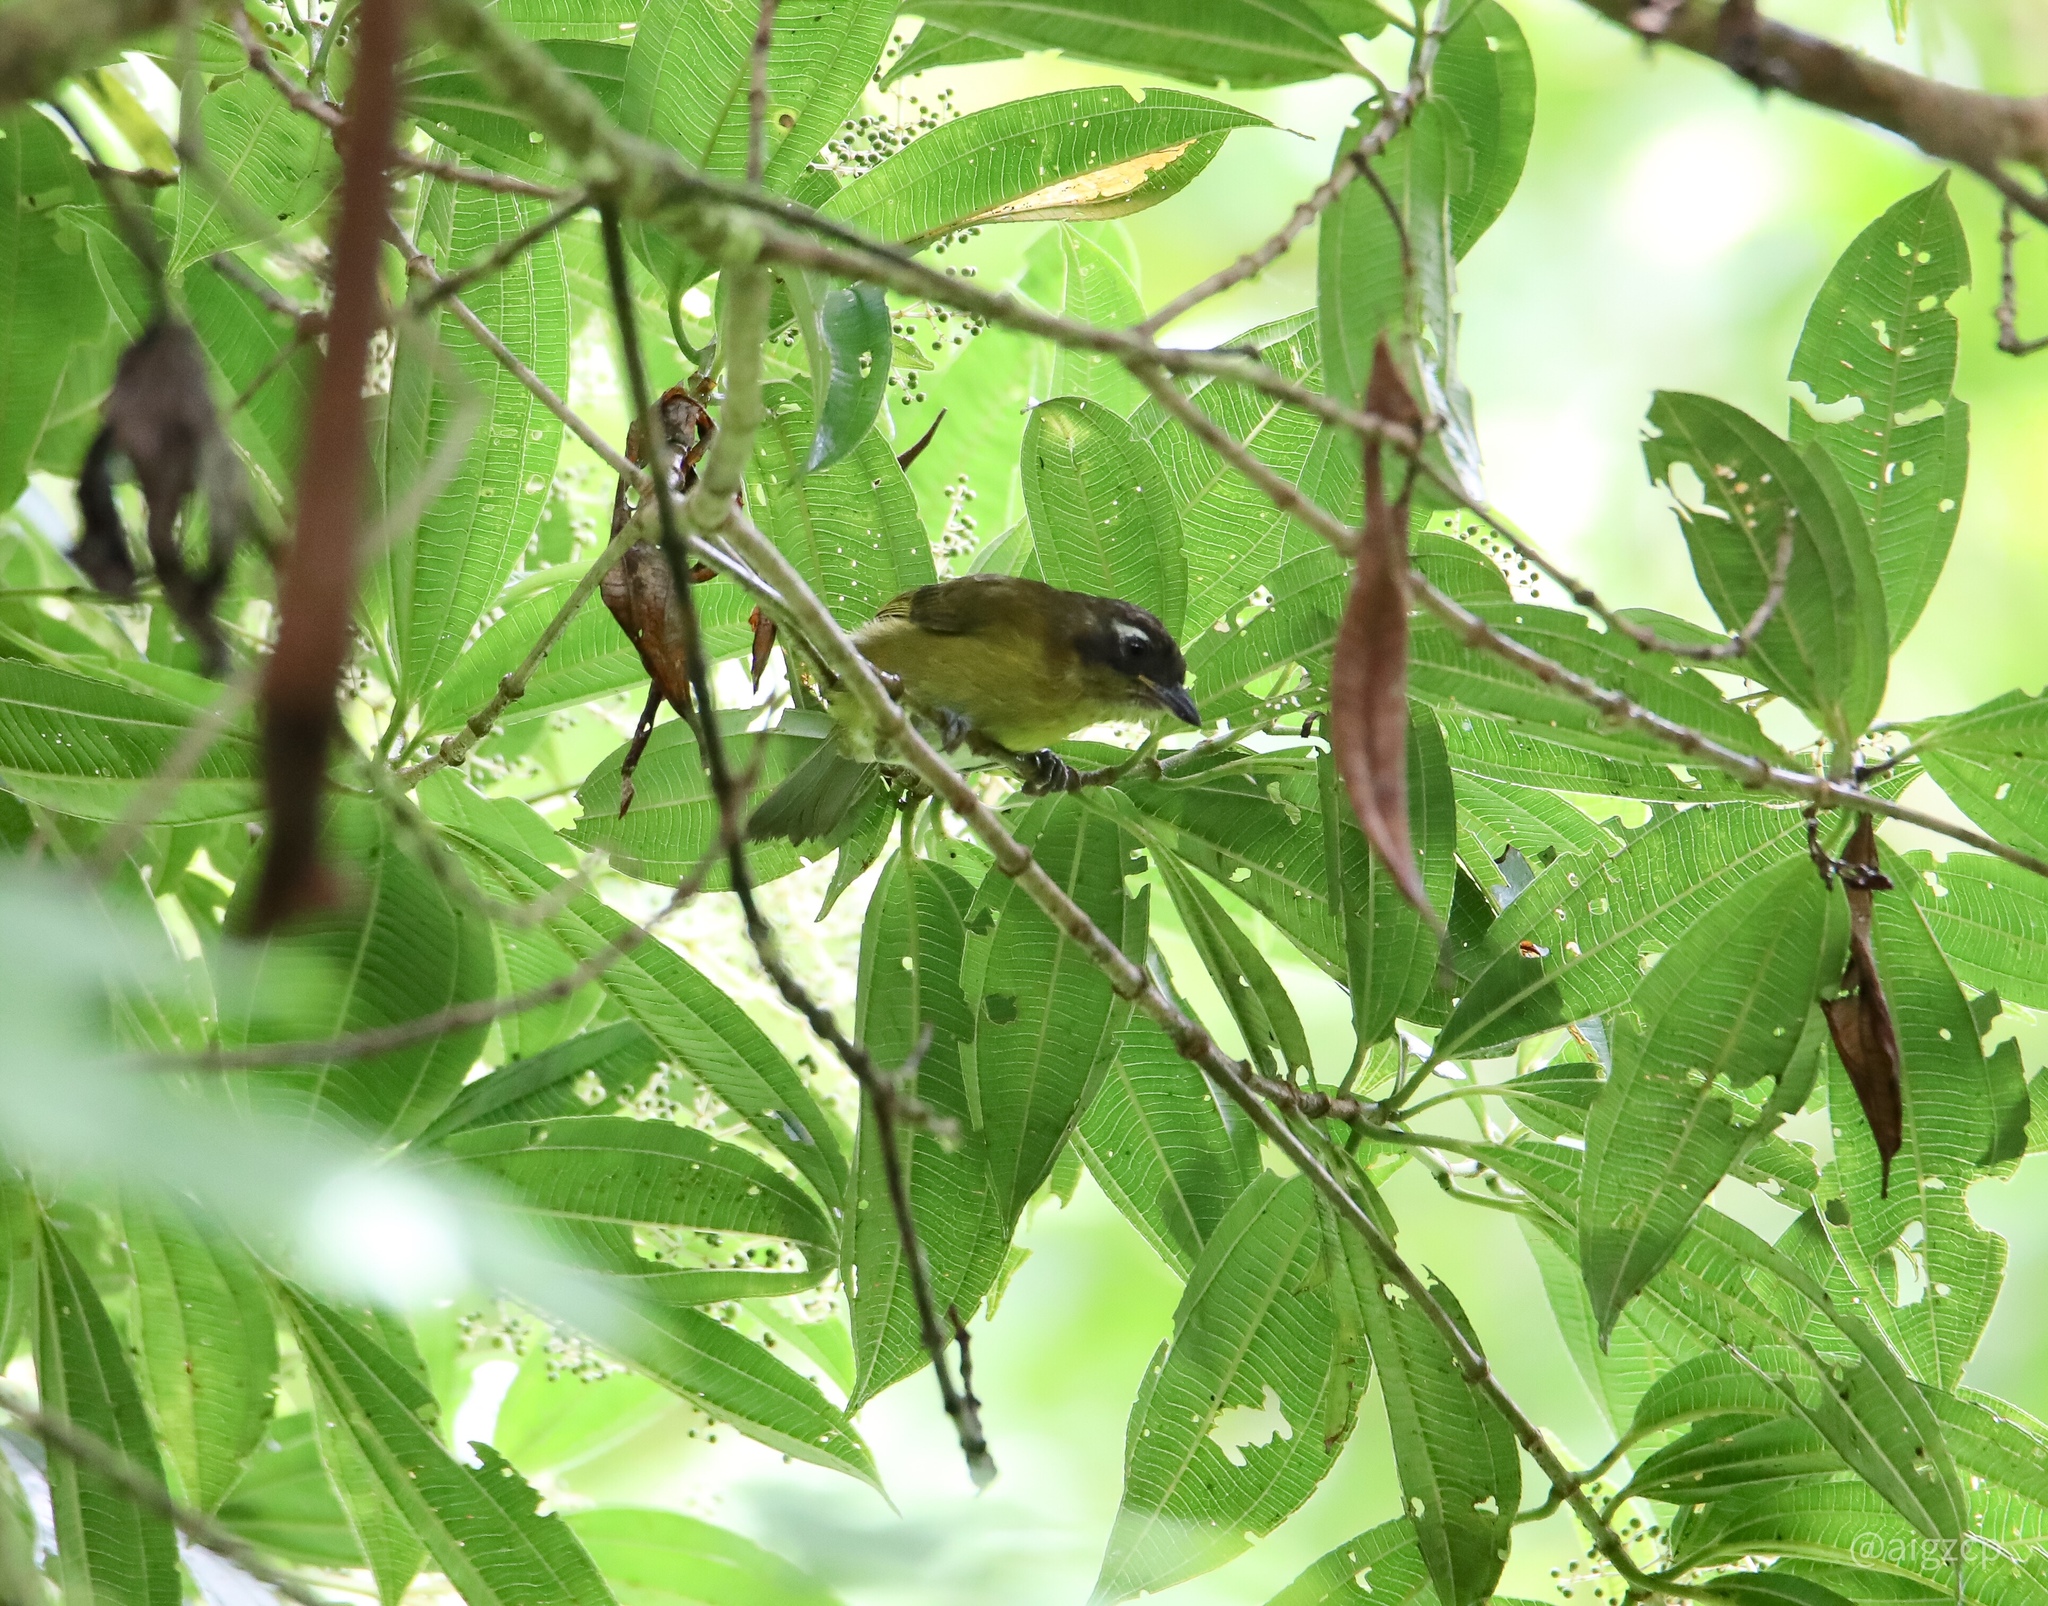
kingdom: Animalia
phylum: Chordata
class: Aves
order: Passeriformes
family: Passerellidae
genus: Chlorospingus
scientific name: Chlorospingus flavopectus
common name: Common chlorospingus
